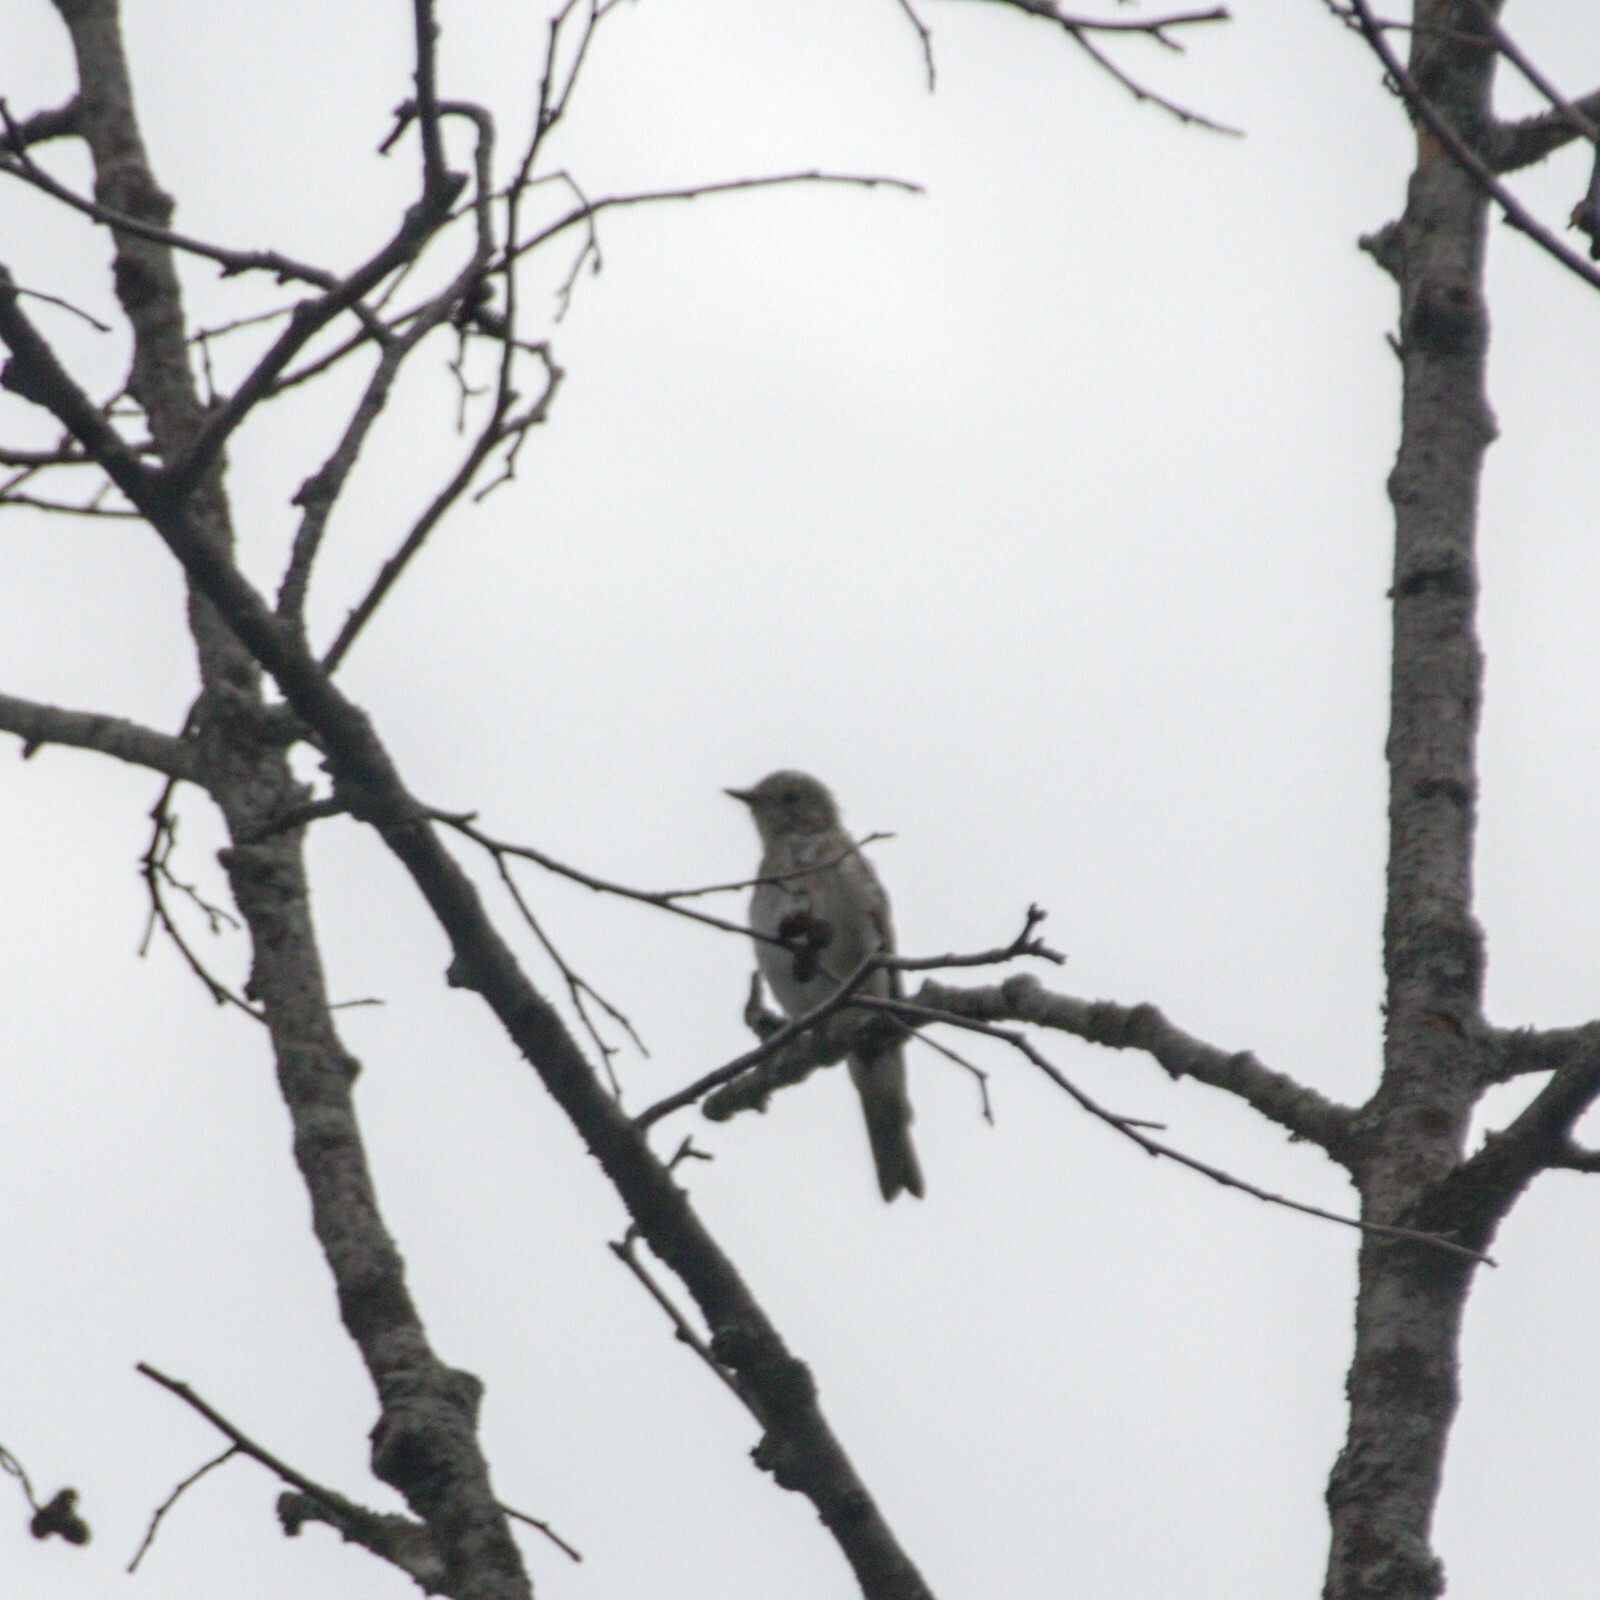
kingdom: Animalia
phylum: Chordata
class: Aves
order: Passeriformes
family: Muscicapidae
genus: Muscicapa
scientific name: Muscicapa striata
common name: Spotted flycatcher
